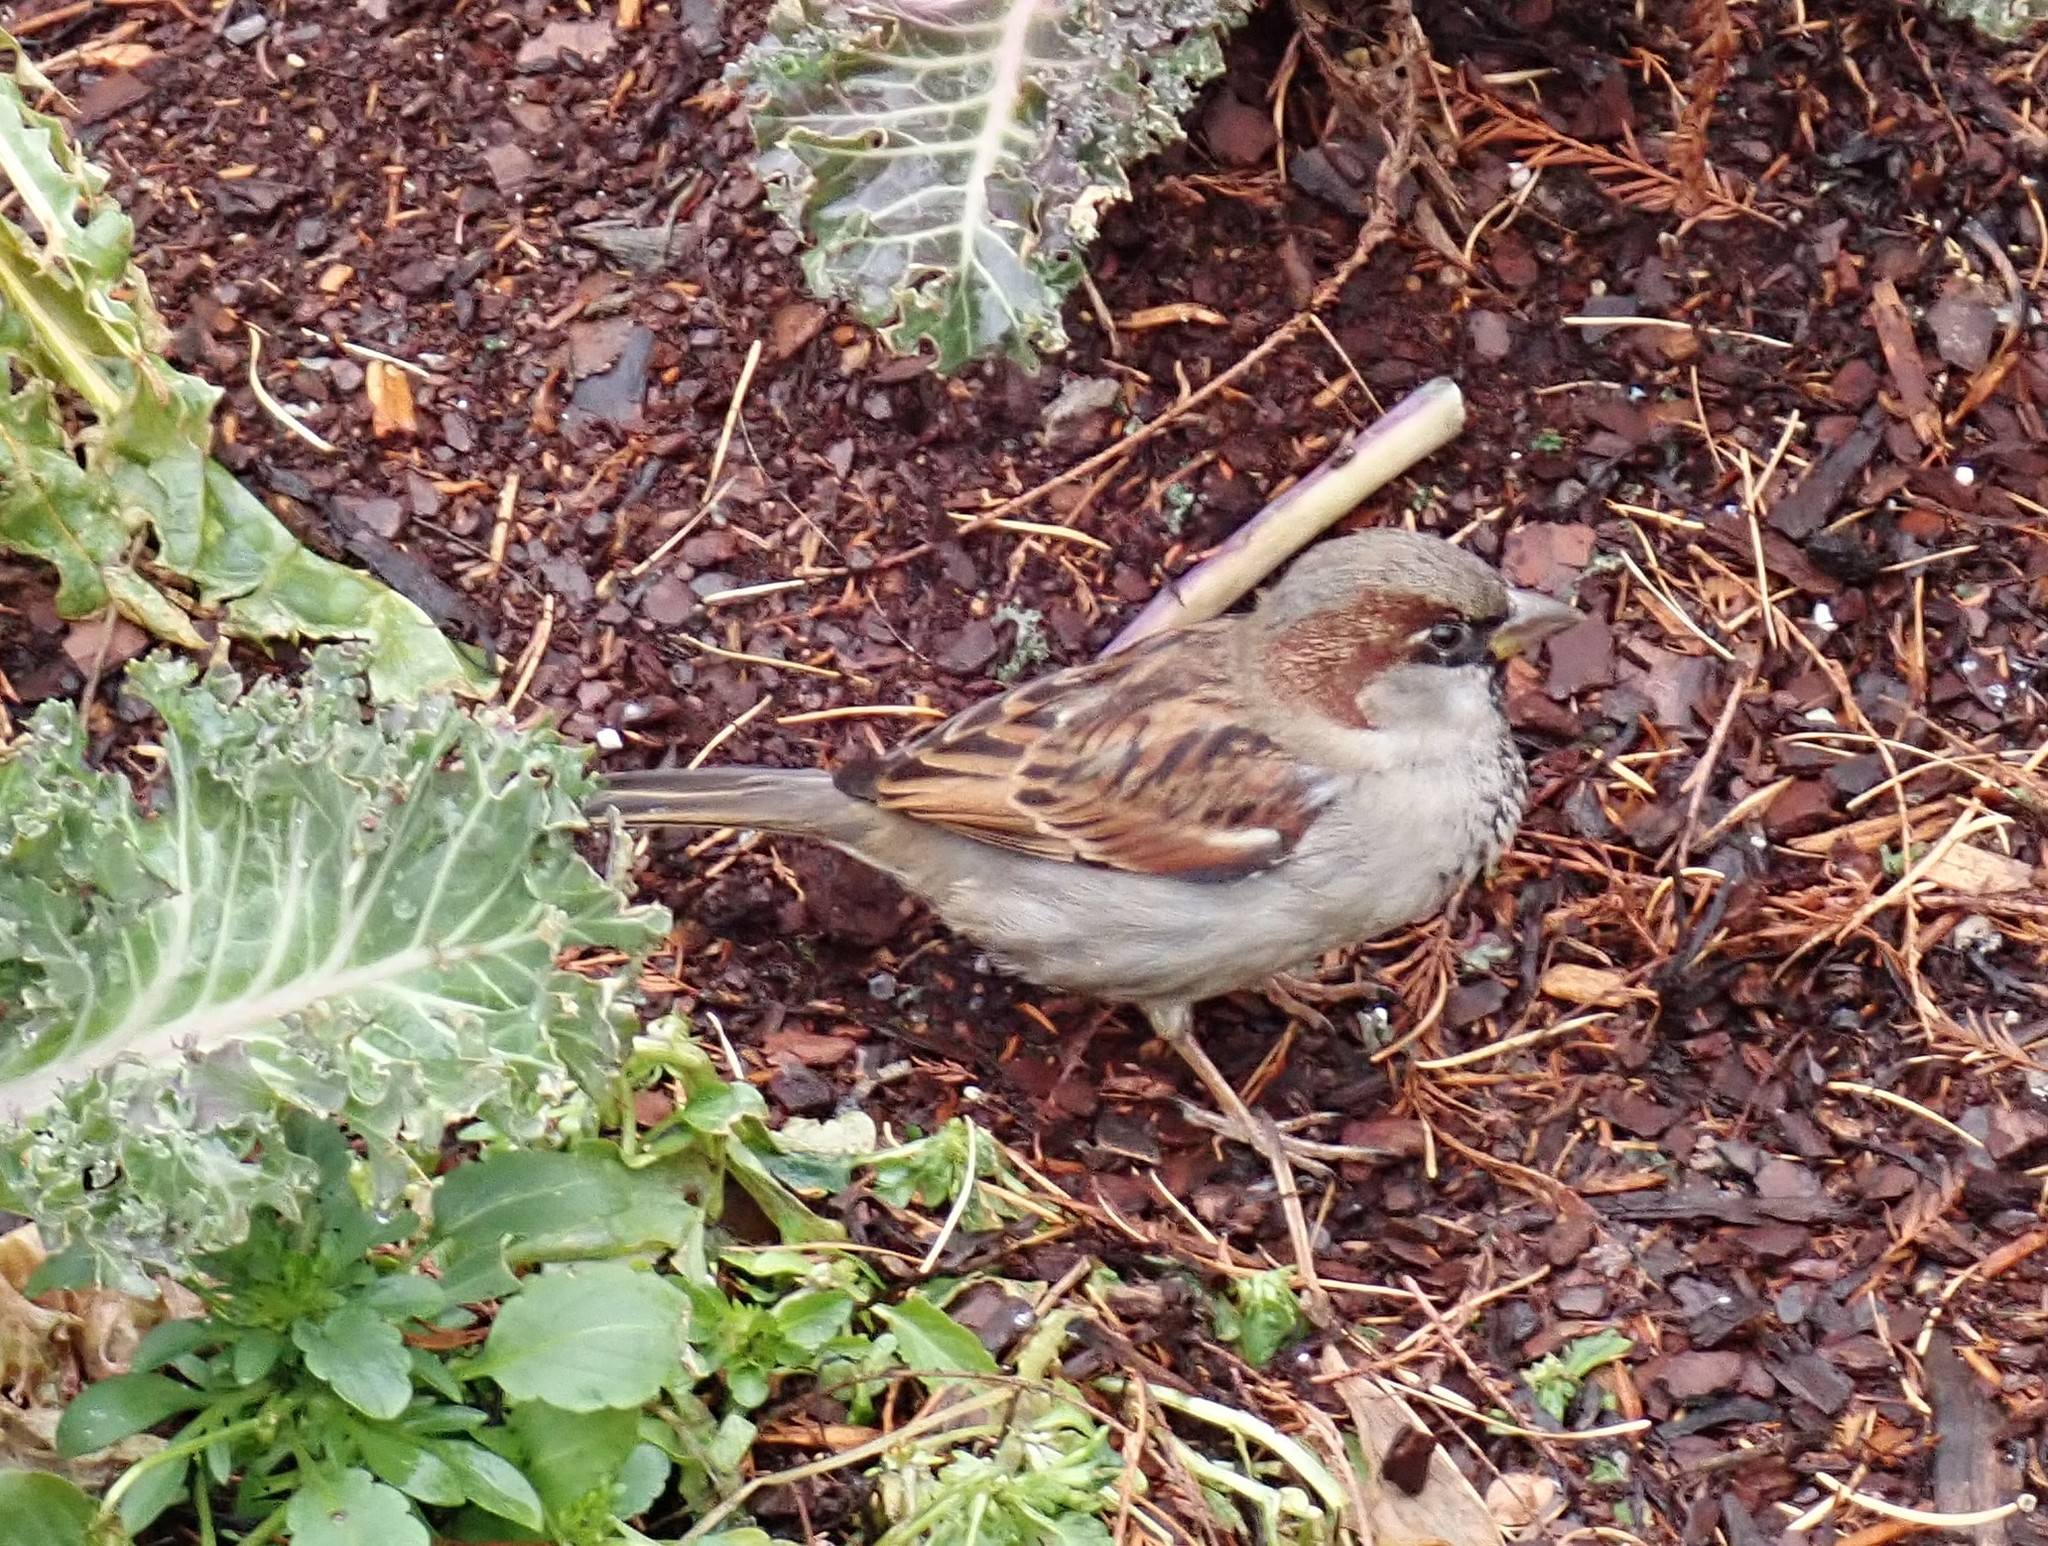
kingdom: Animalia
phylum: Chordata
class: Aves
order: Passeriformes
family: Passeridae
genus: Passer
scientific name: Passer domesticus
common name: House sparrow
